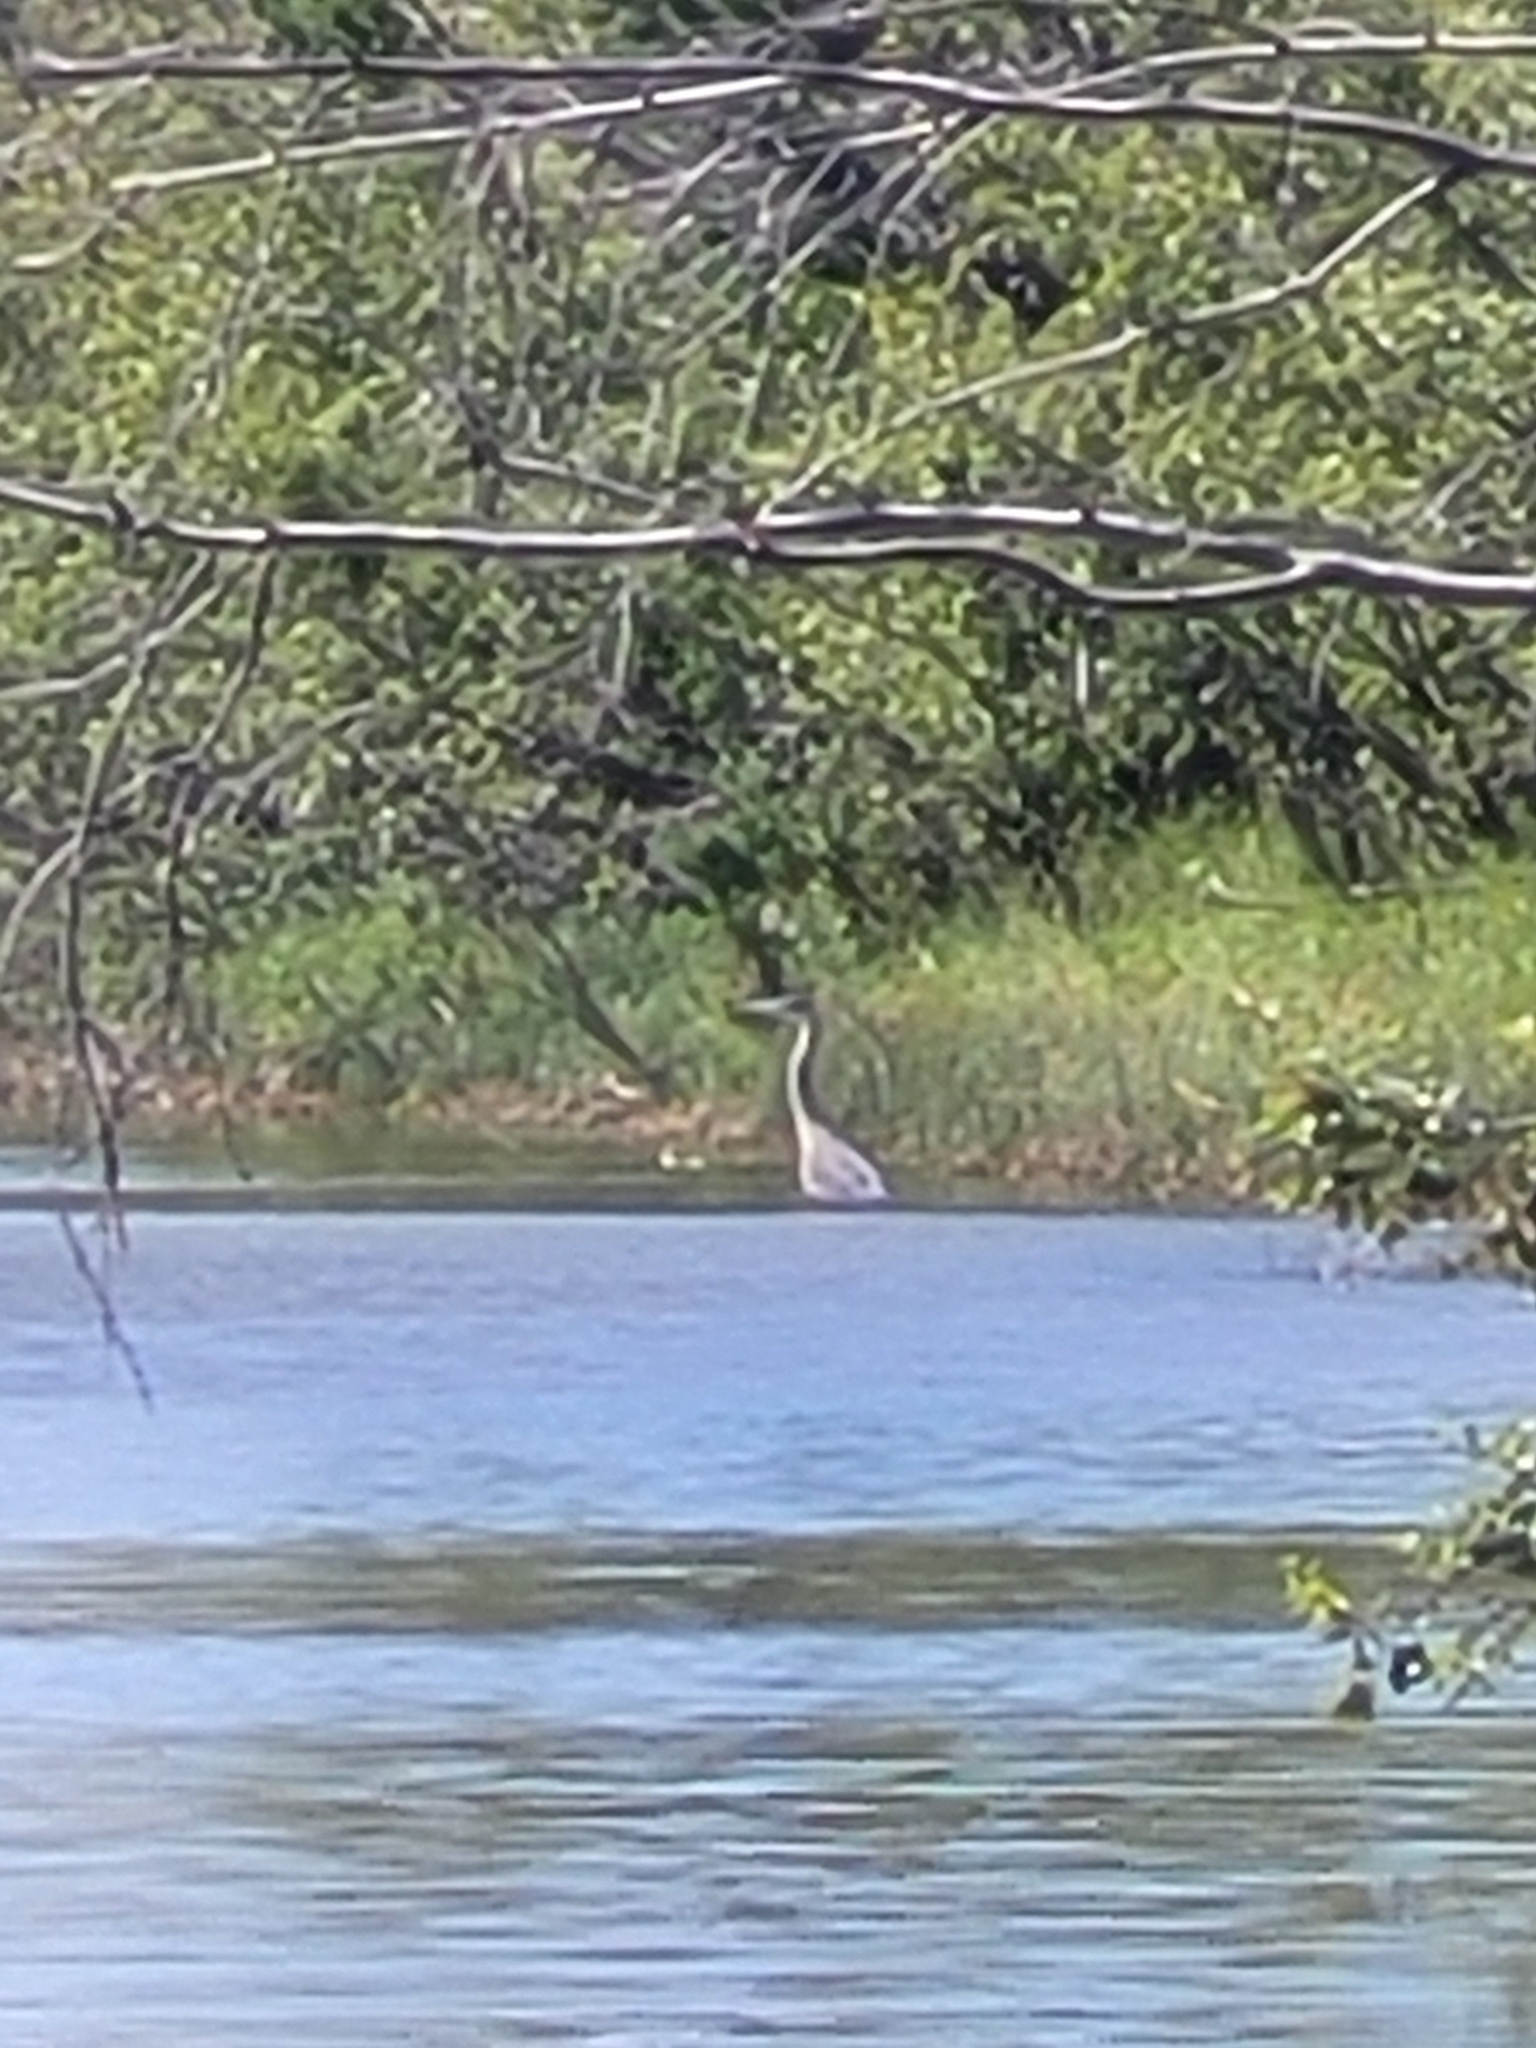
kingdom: Animalia
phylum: Chordata
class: Aves
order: Pelecaniformes
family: Ardeidae
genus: Ardea
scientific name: Ardea herodias
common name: Great blue heron
